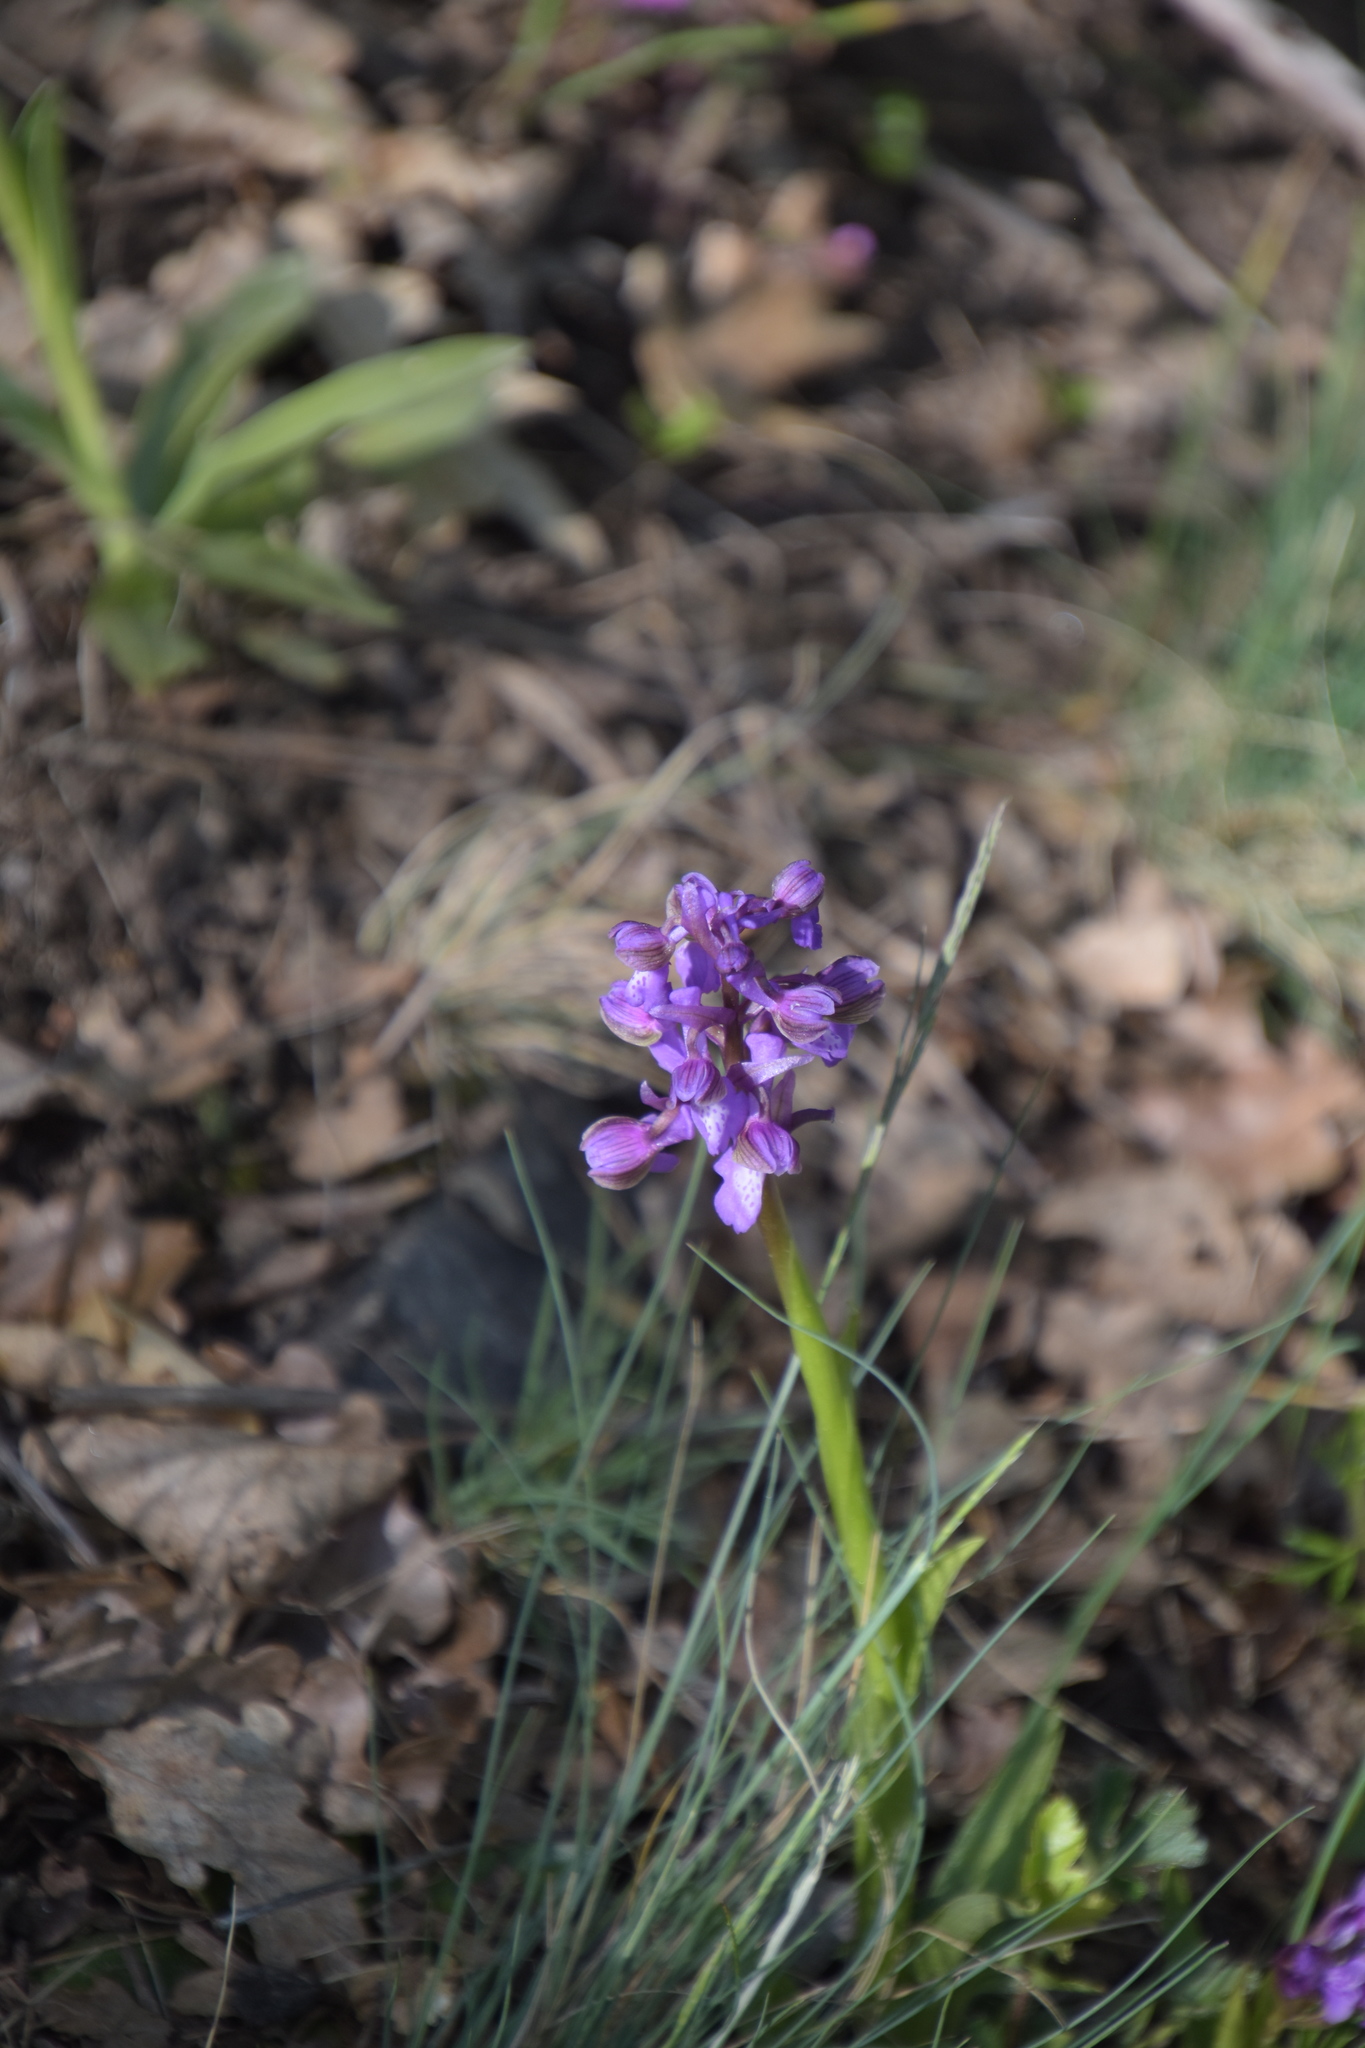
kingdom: Plantae
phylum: Tracheophyta
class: Liliopsida
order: Asparagales
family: Orchidaceae
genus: Anacamptis
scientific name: Anacamptis morio
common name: Green-winged orchid
